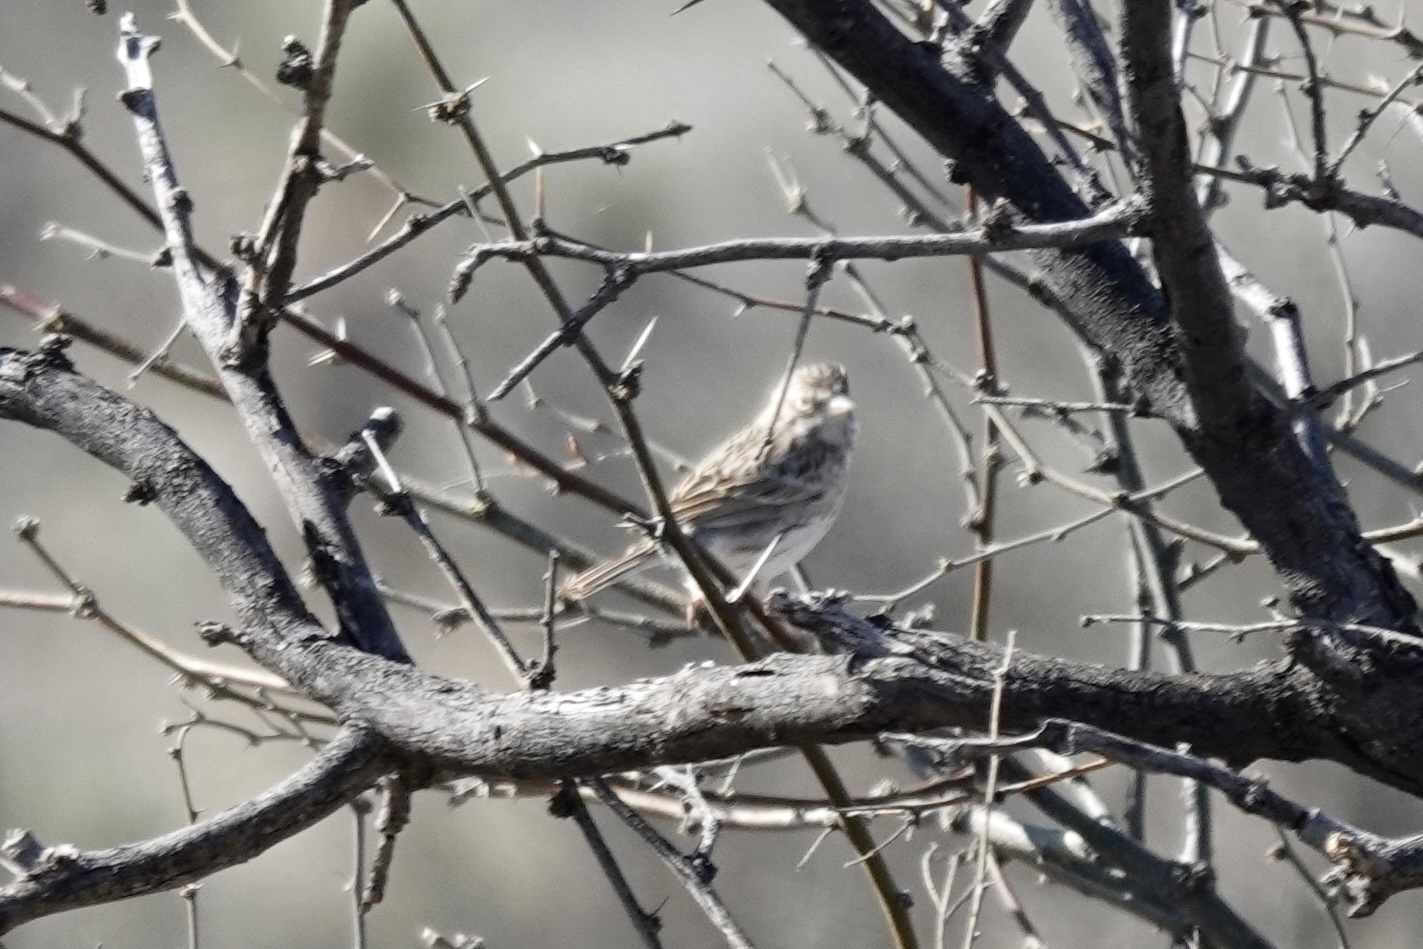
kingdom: Animalia
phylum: Chordata
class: Aves
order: Passeriformes
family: Passerellidae
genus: Pooecetes
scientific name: Pooecetes gramineus
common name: Vesper sparrow
